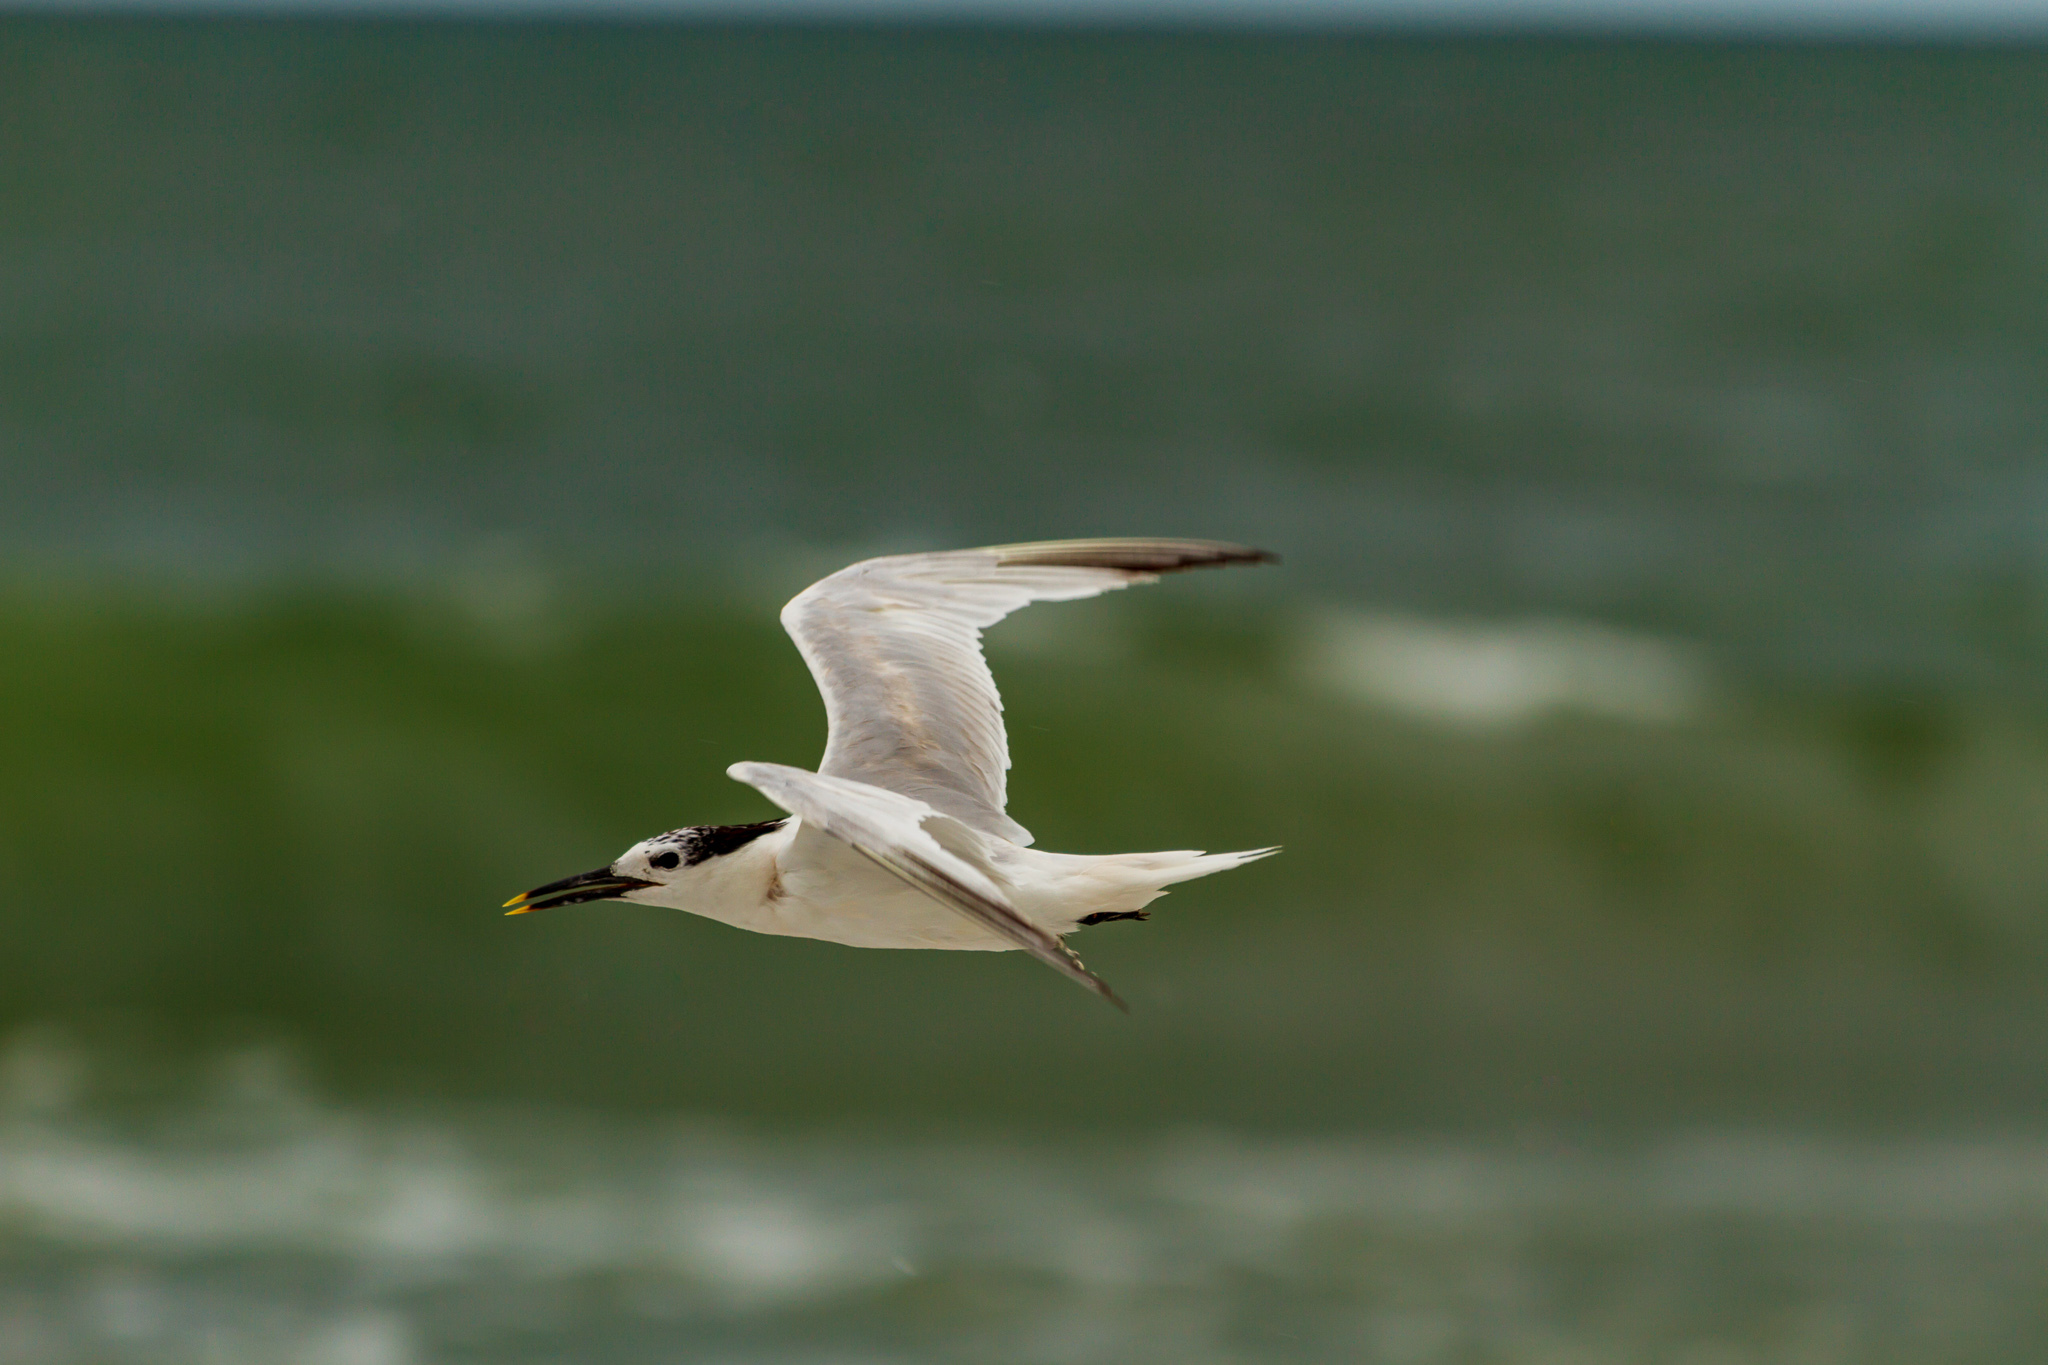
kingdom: Animalia
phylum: Chordata
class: Aves
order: Charadriiformes
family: Laridae
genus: Thalasseus
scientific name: Thalasseus sandvicensis
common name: Sandwich tern
